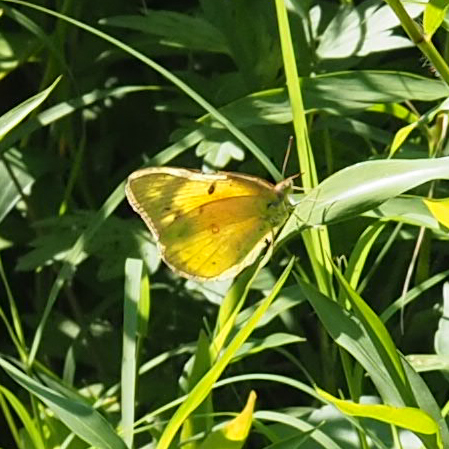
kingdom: Animalia
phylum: Arthropoda
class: Insecta
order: Lepidoptera
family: Pieridae
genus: Colias
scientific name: Colias eurytheme
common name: Alfalfa butterfly
